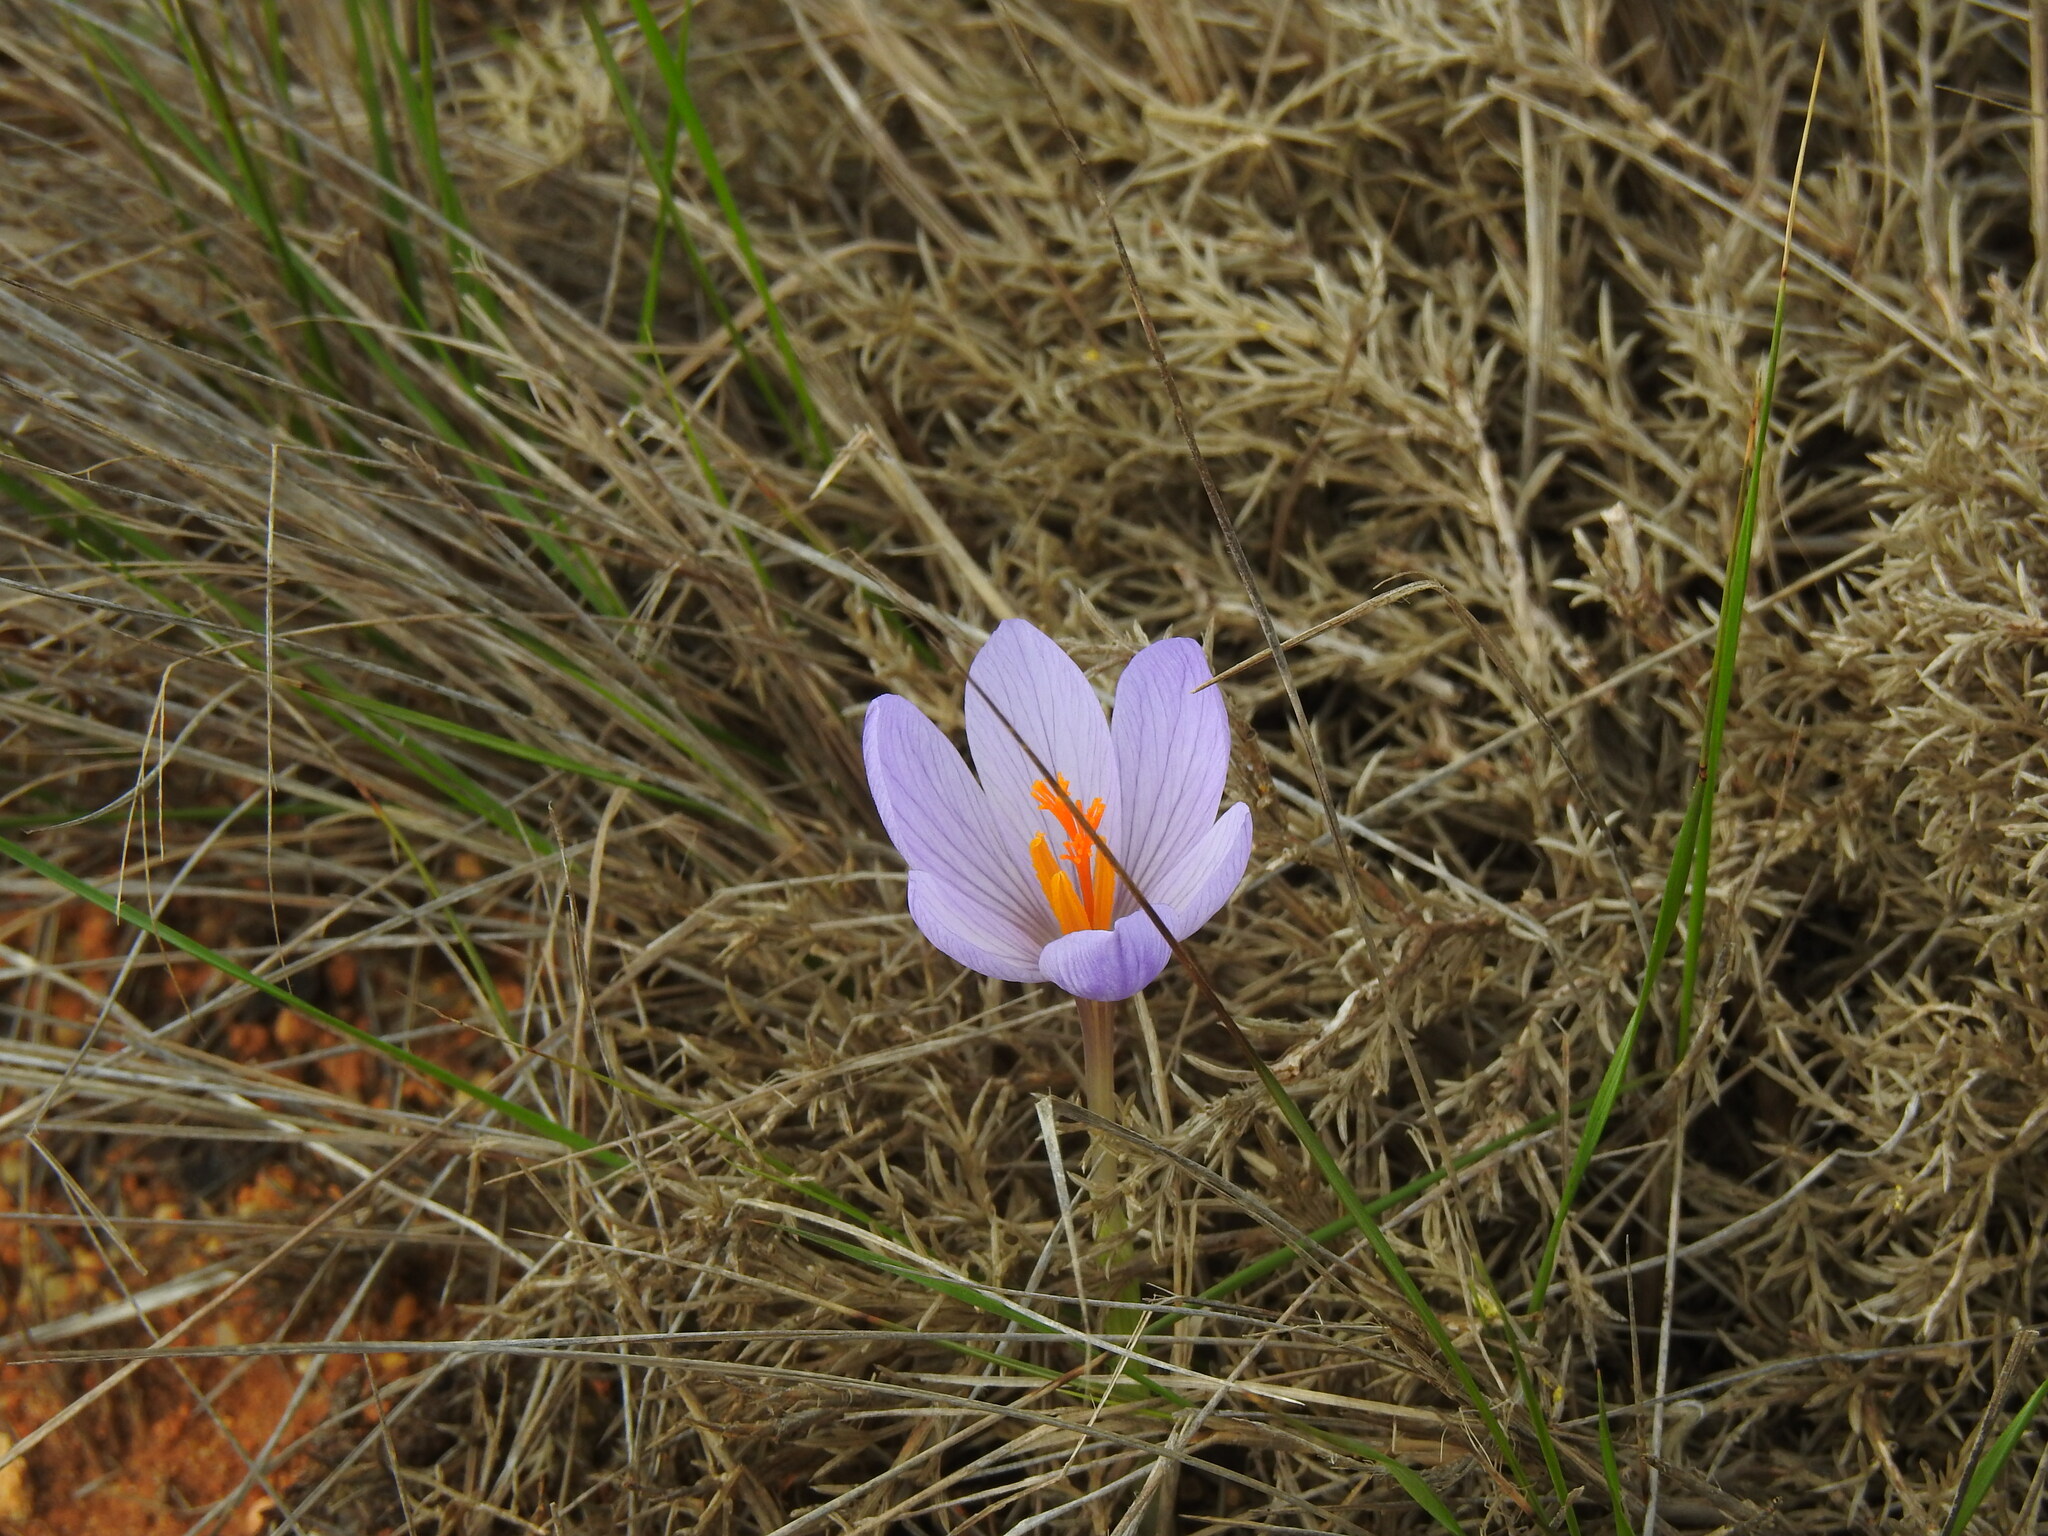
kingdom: Plantae
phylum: Tracheophyta
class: Liliopsida
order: Asparagales
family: Iridaceae
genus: Crocus
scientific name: Crocus serotinus
